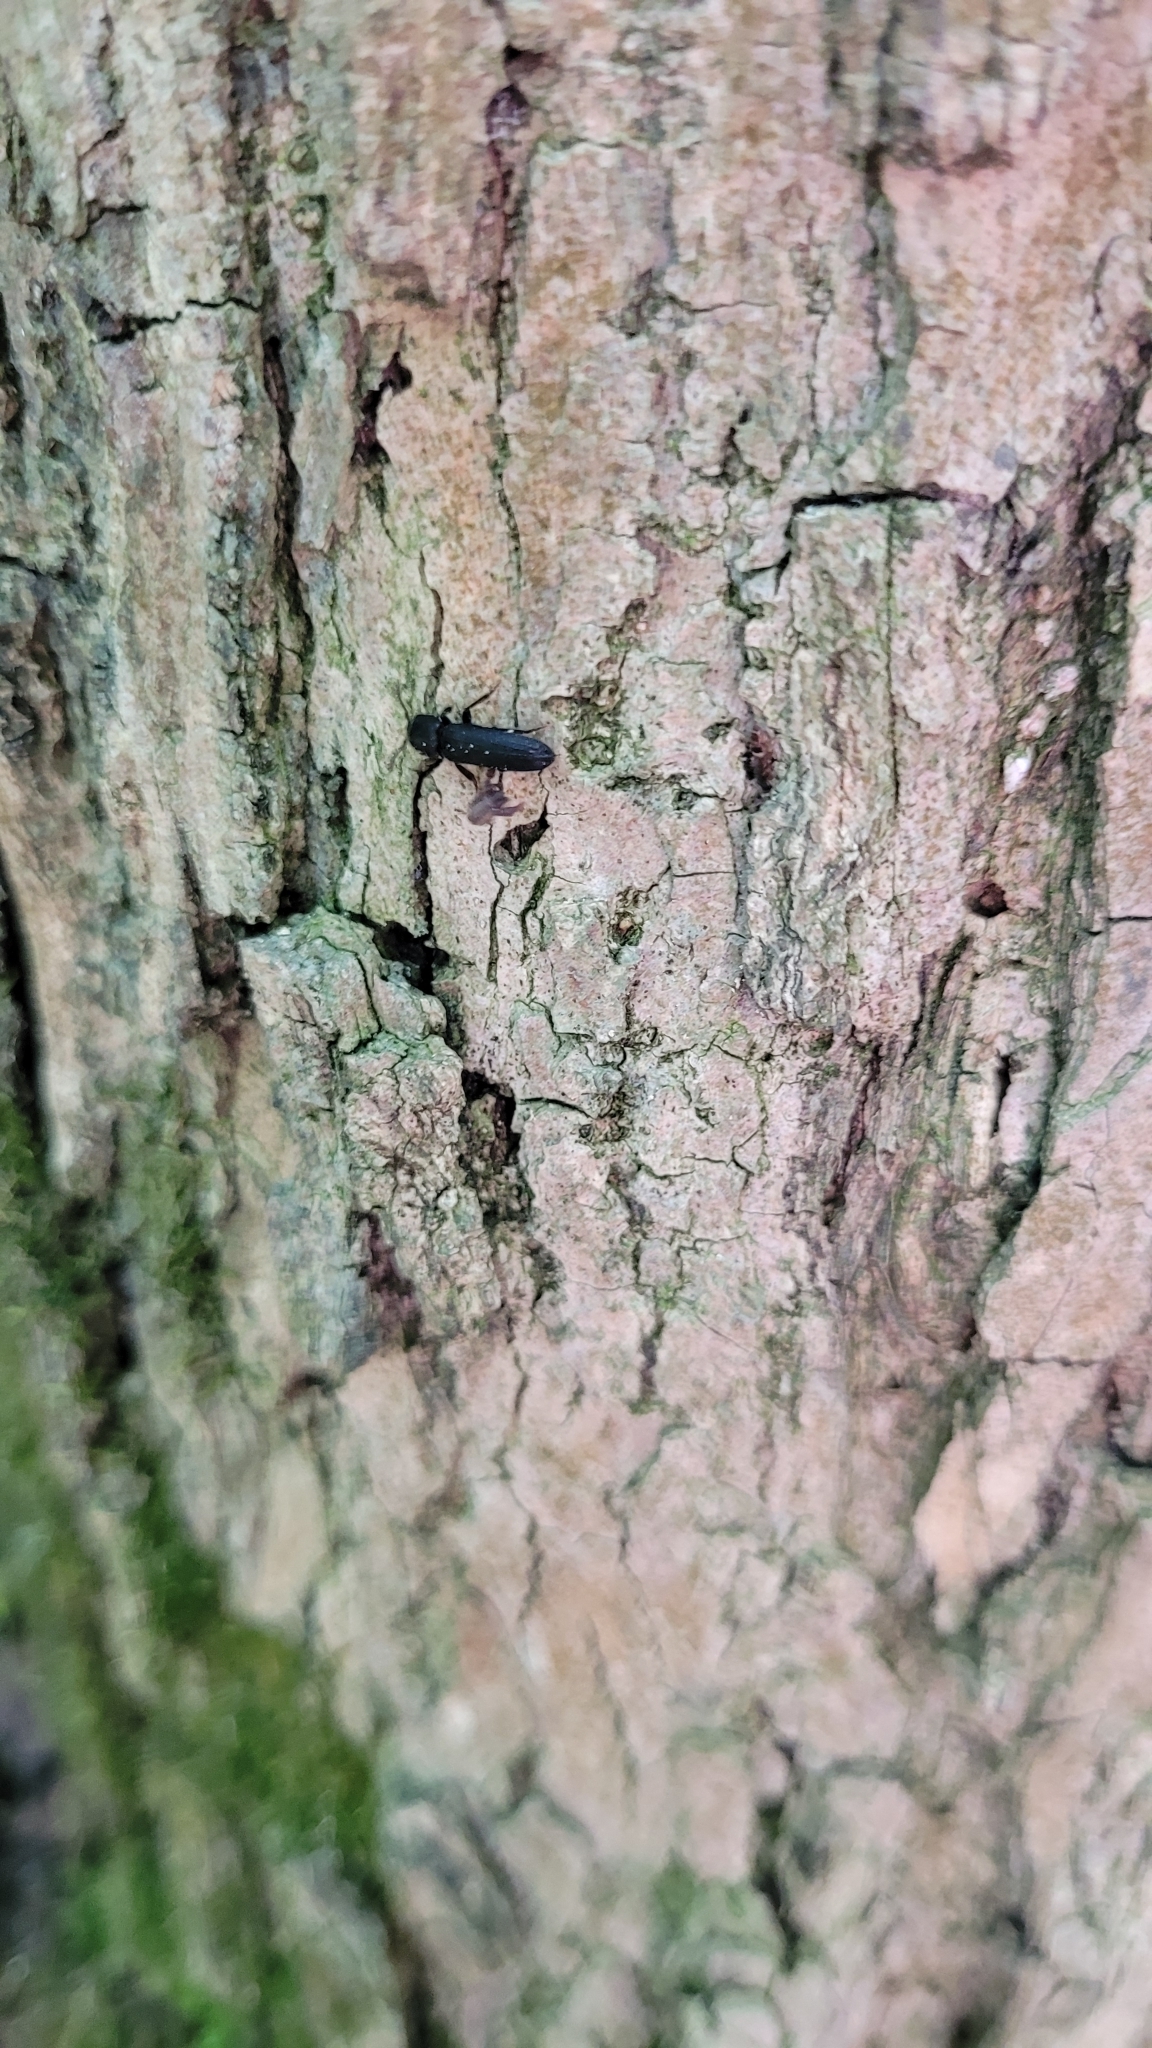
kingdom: Animalia
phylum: Arthropoda
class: Insecta
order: Coleoptera
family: Eucnemidae
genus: Melasis
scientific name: Melasis buprestoides
